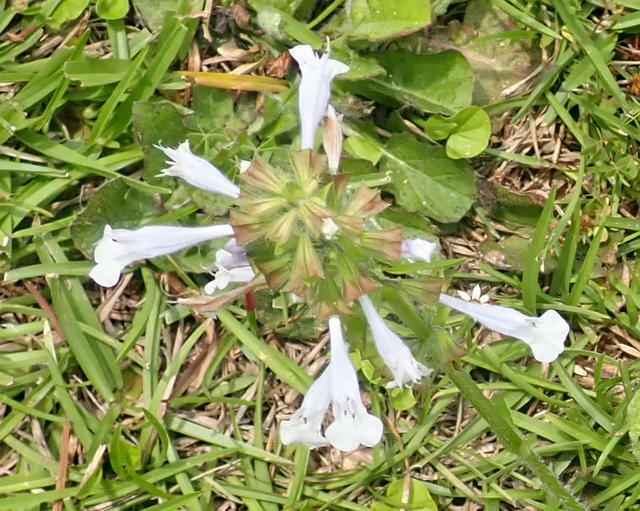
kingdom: Plantae
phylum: Tracheophyta
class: Magnoliopsida
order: Lamiales
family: Lamiaceae
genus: Salvia
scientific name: Salvia lyrata
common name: Cancerweed
